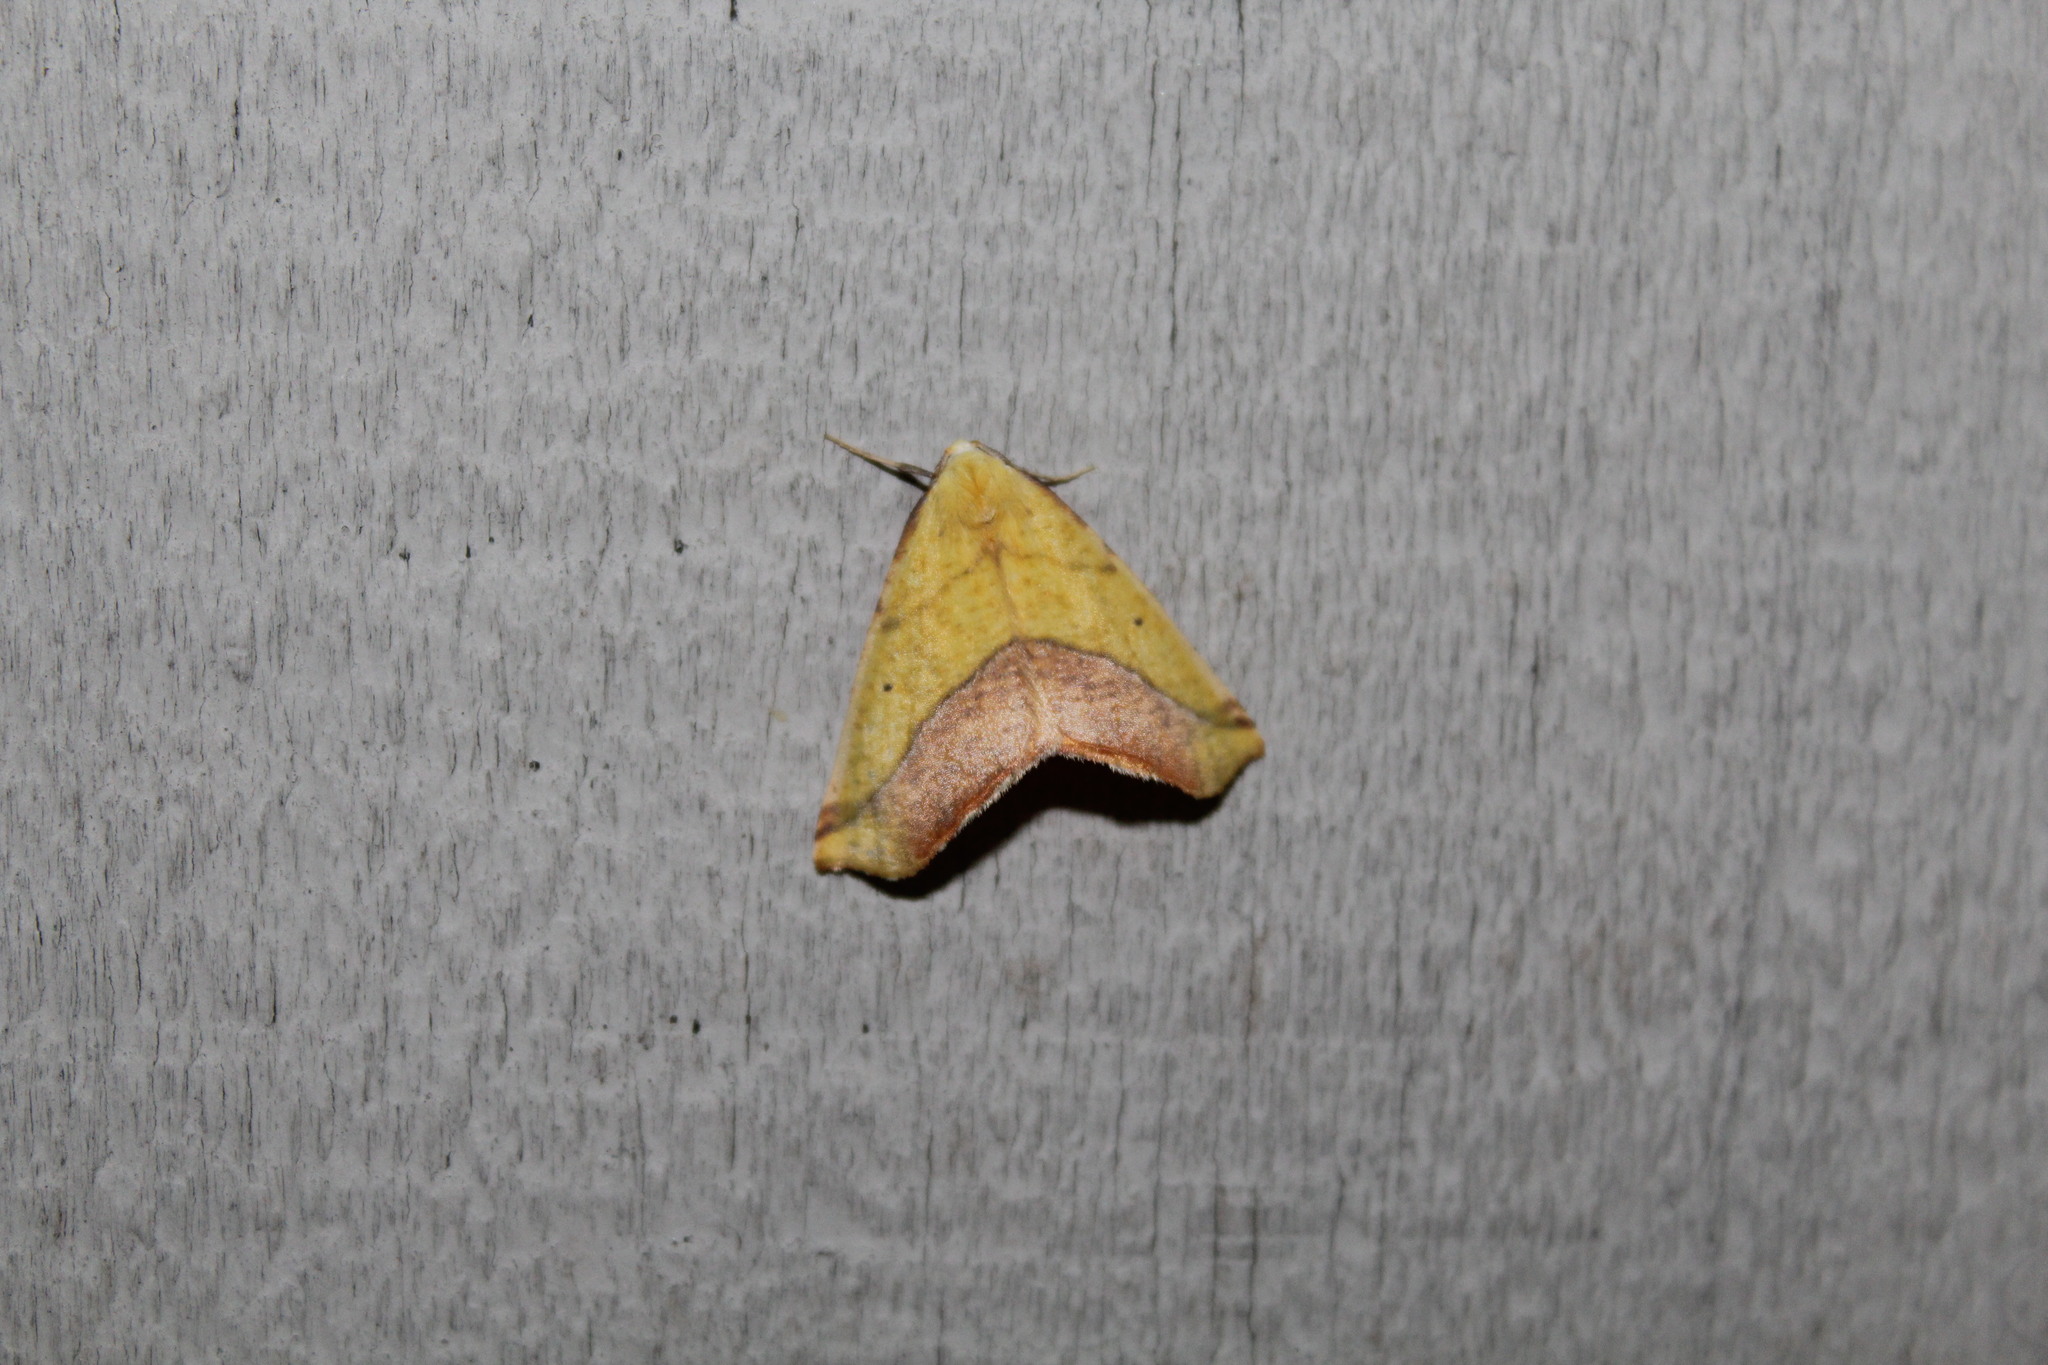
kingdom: Animalia
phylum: Arthropoda
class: Insecta
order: Lepidoptera
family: Geometridae
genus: Sicya
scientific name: Sicya macularia
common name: Sharp-lined yellow
